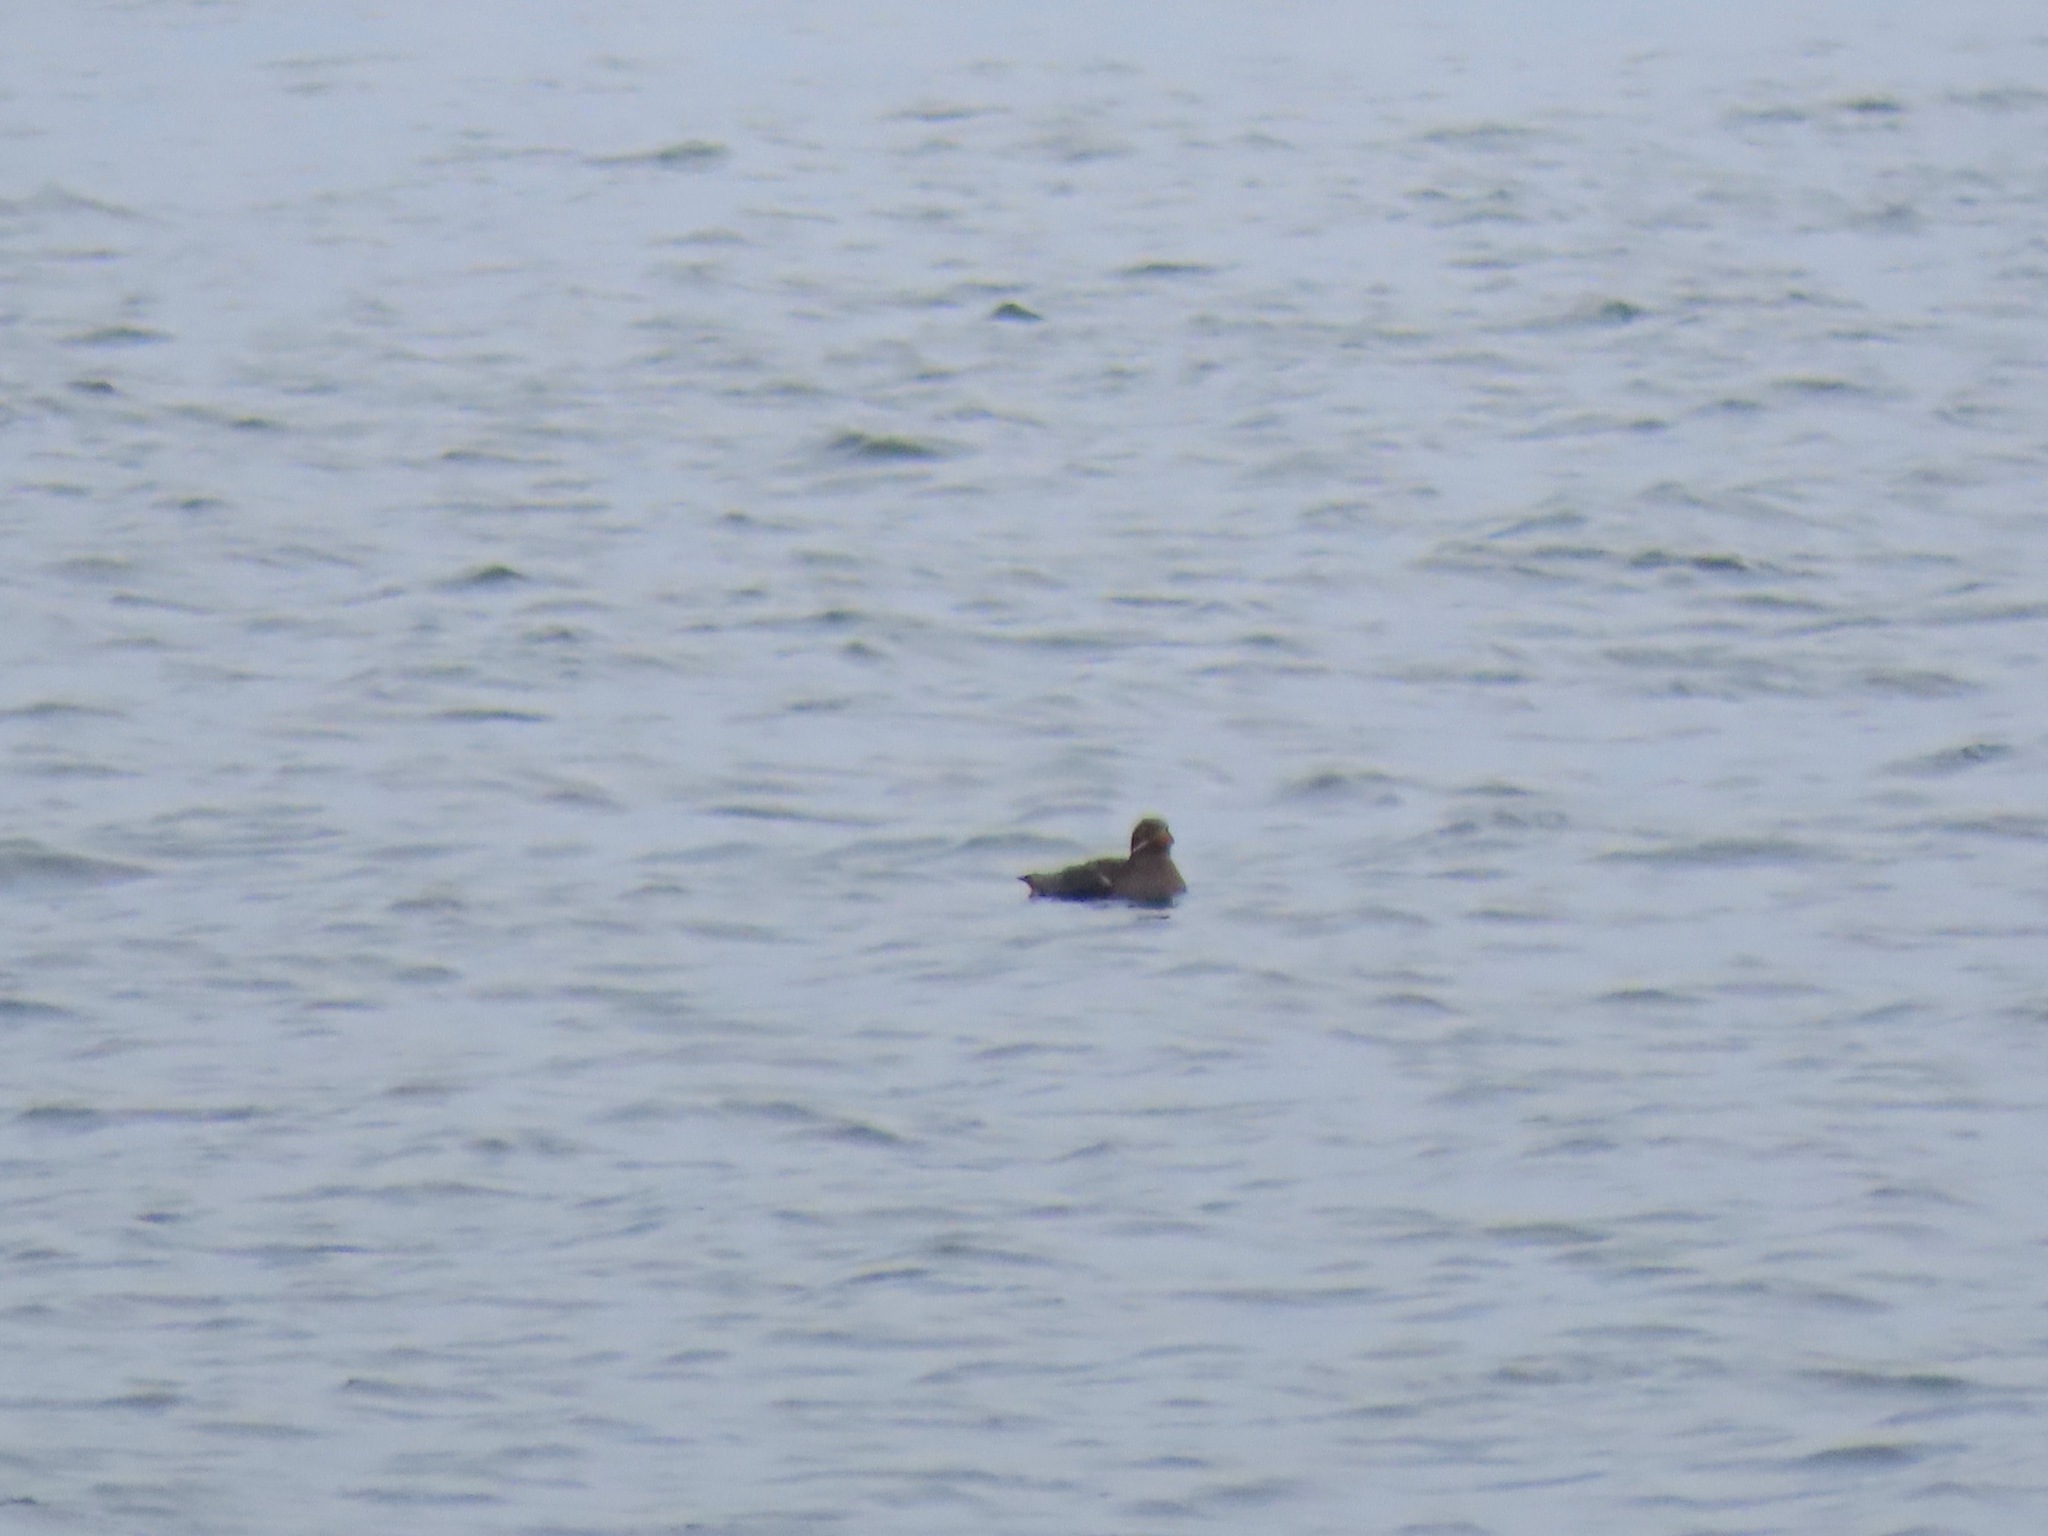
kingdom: Animalia
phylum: Chordata
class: Aves
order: Charadriiformes
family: Alcidae
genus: Cerorhinca
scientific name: Cerorhinca monocerata
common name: Rhinoceros auklet
